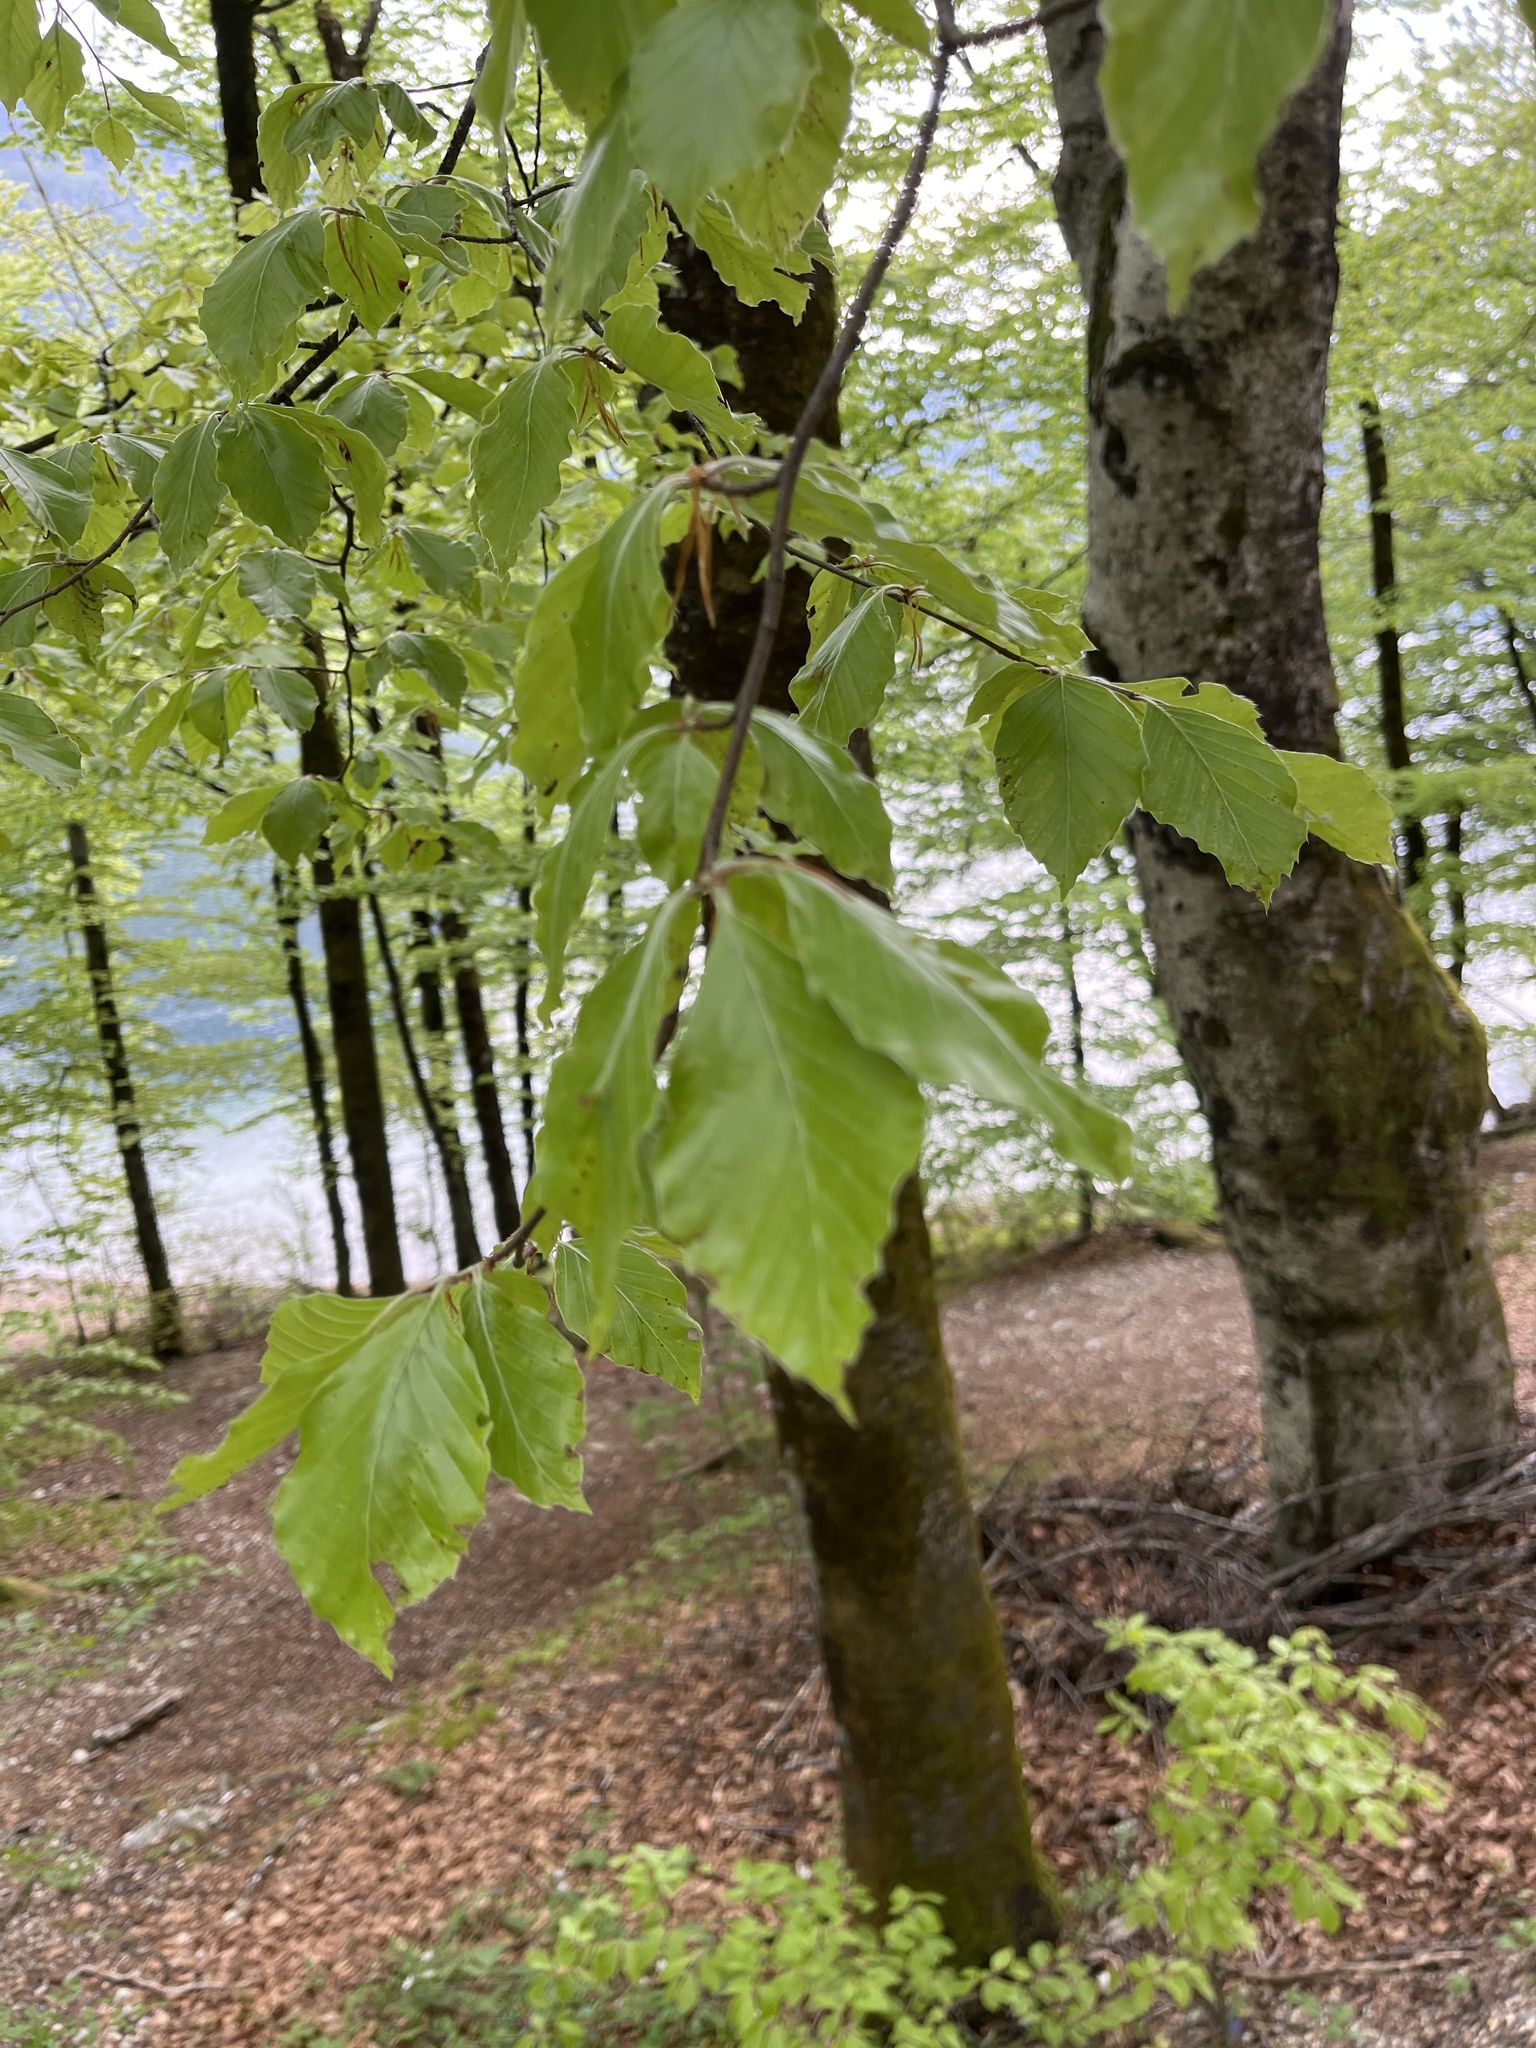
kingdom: Plantae
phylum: Tracheophyta
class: Magnoliopsida
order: Fagales
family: Fagaceae
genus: Fagus
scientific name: Fagus sylvatica
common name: Beech
